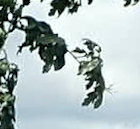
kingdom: Plantae
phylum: Tracheophyta
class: Magnoliopsida
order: Fagales
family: Fagaceae
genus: Quercus
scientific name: Quercus macrocarpa
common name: Bur oak
